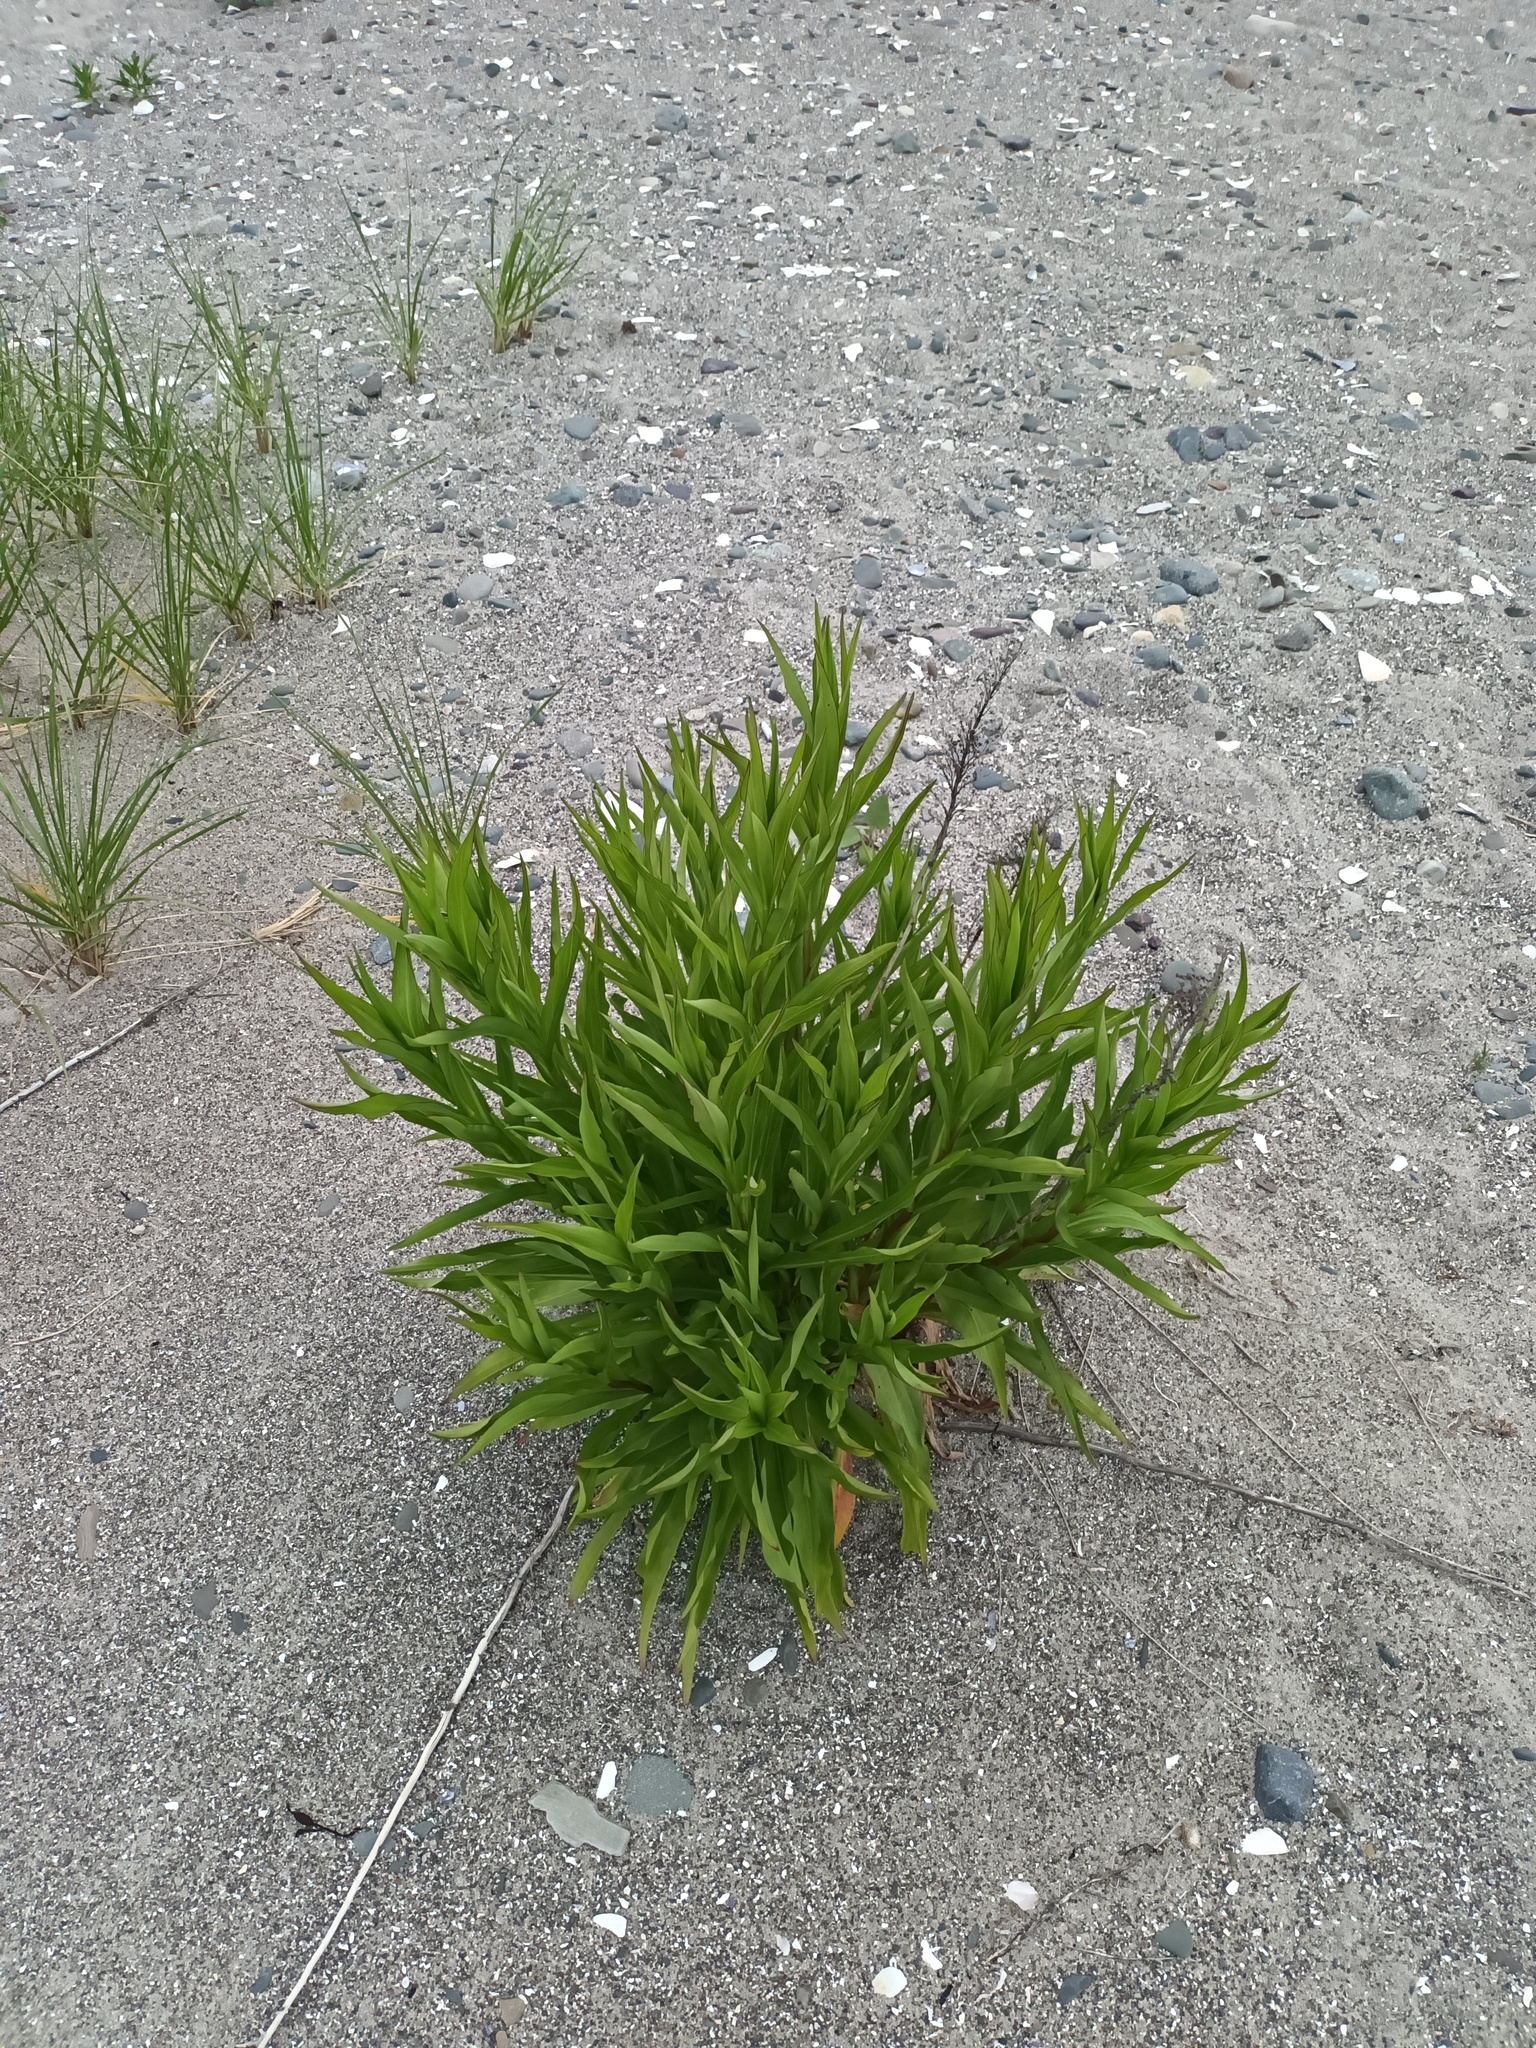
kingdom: Plantae
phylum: Tracheophyta
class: Magnoliopsida
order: Asterales
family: Asteraceae
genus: Solidago
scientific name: Solidago canadensis
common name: Canada goldenrod
